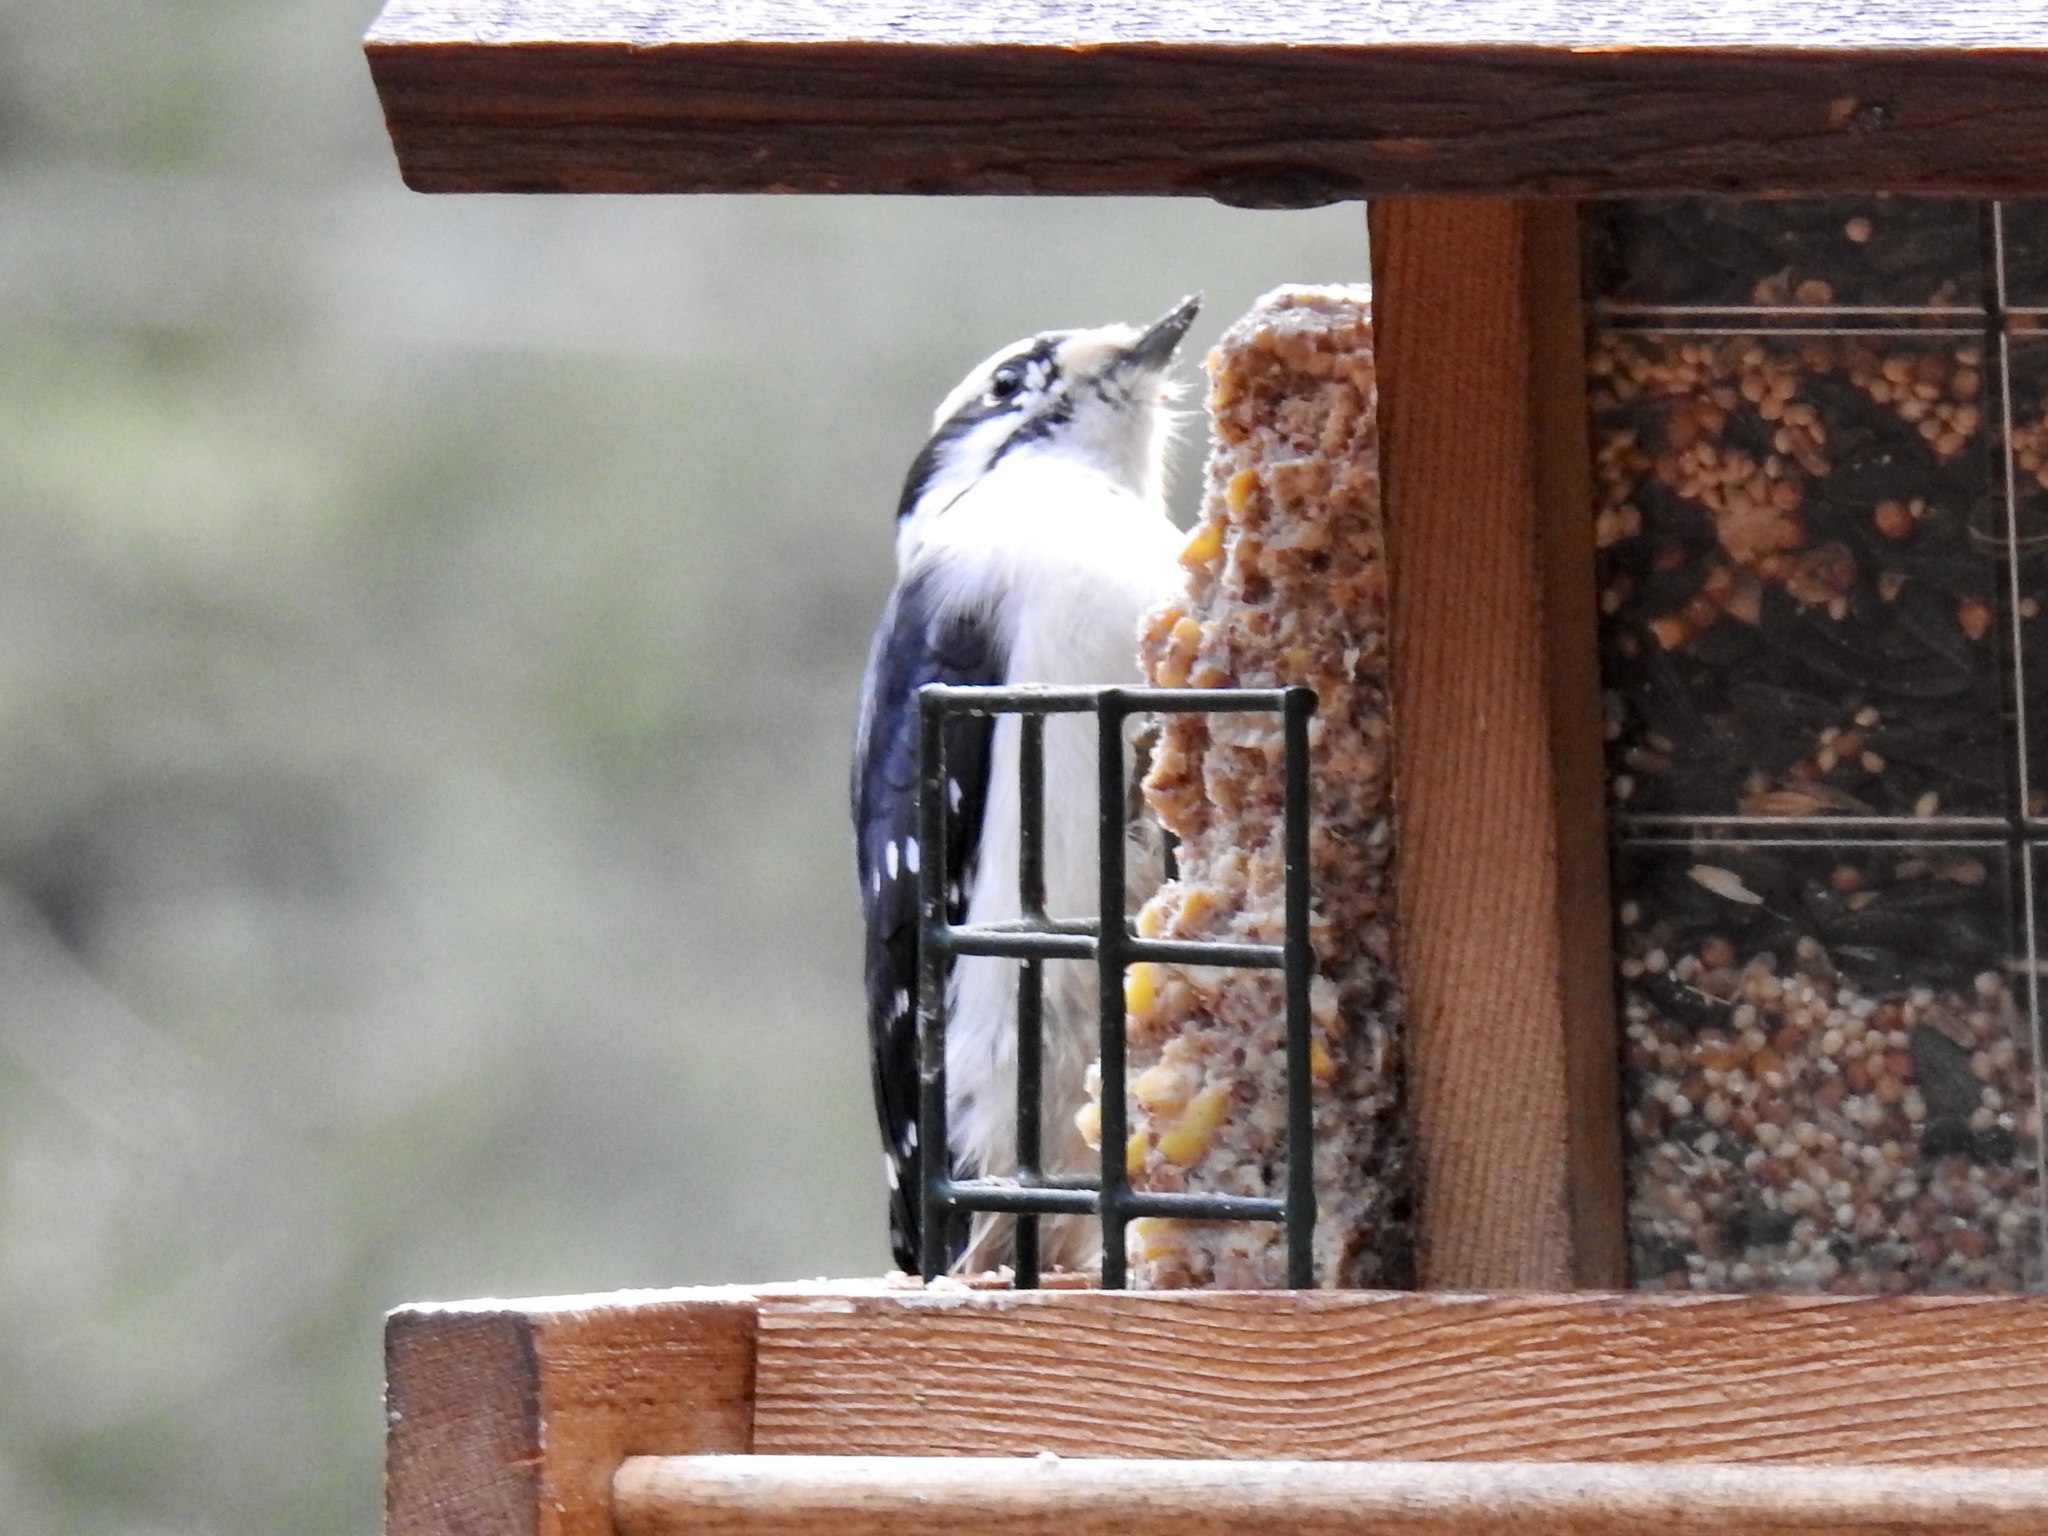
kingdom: Animalia
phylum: Chordata
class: Aves
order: Piciformes
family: Picidae
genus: Dryobates
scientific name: Dryobates pubescens
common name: Downy woodpecker
